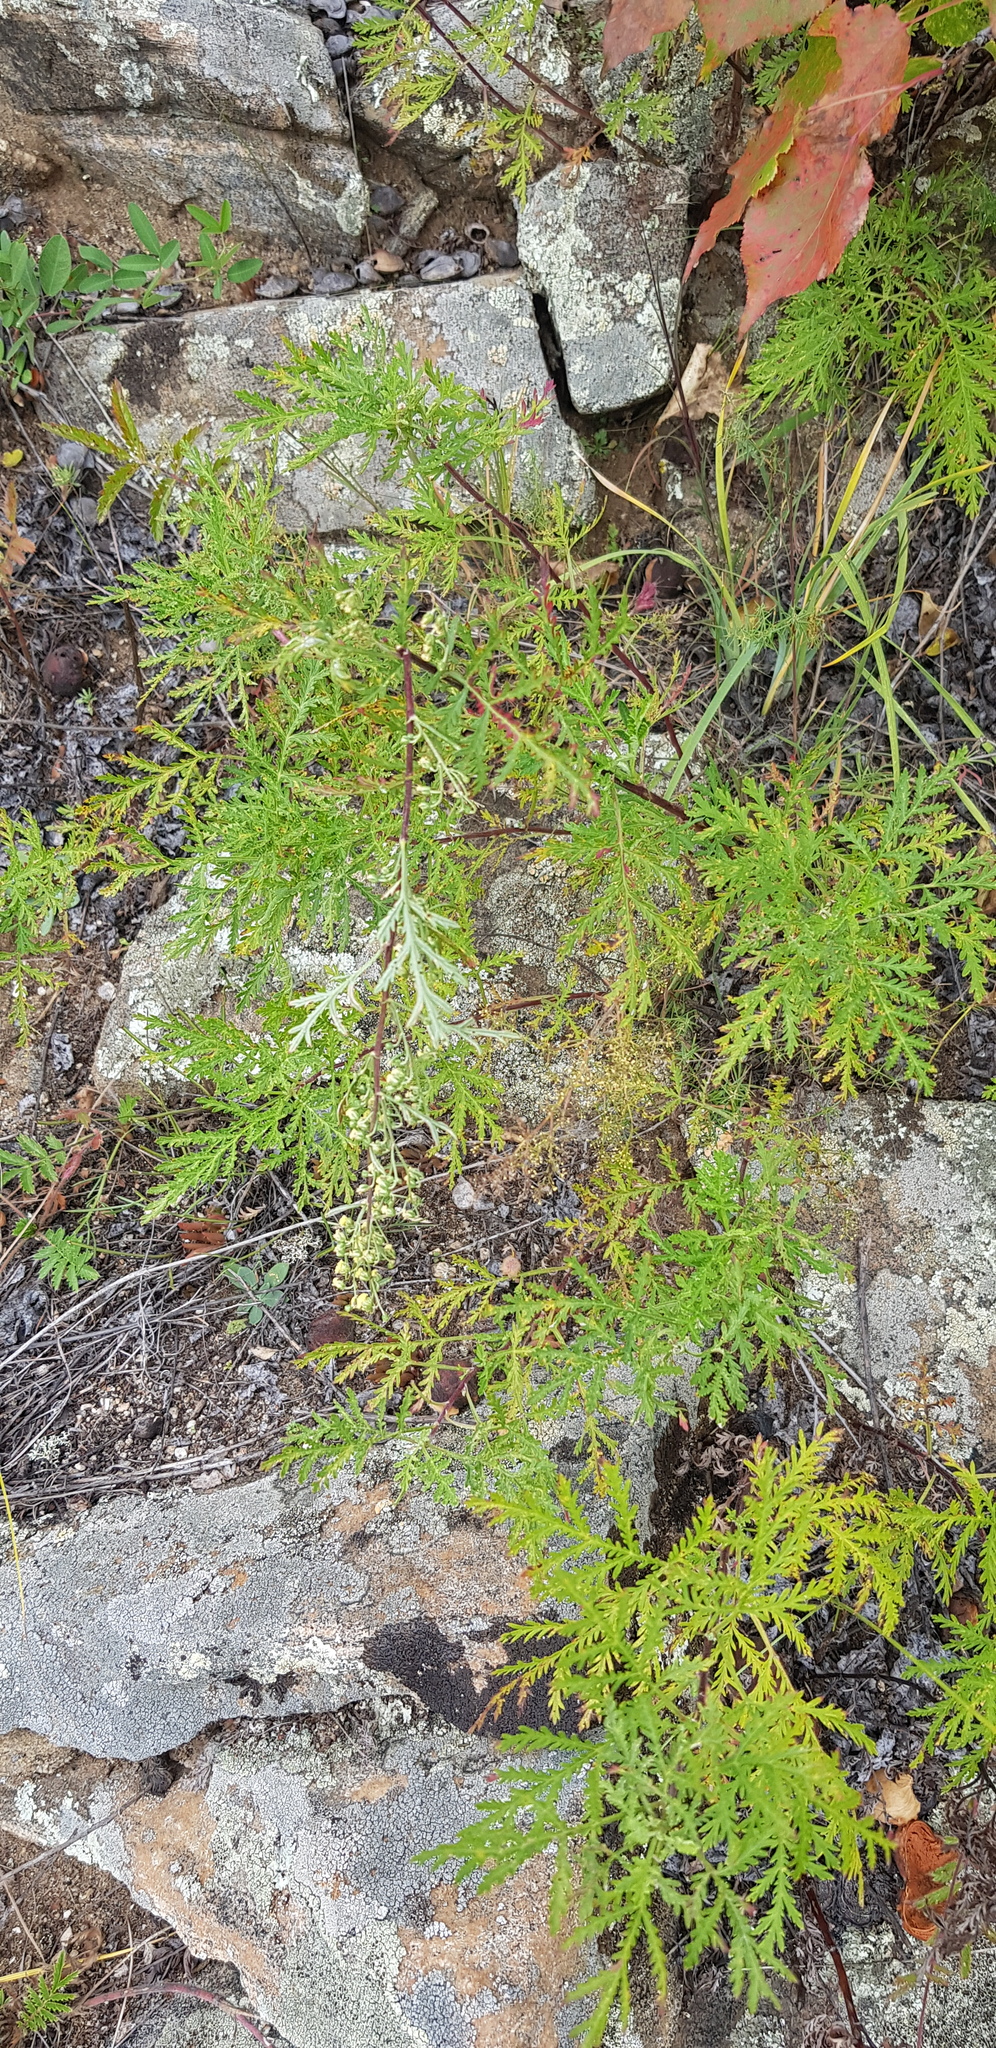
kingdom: Plantae
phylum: Tracheophyta
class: Magnoliopsida
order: Asterales
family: Asteraceae
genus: Artemisia
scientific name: Artemisia gmelinii
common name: Gmelin's wormwood
